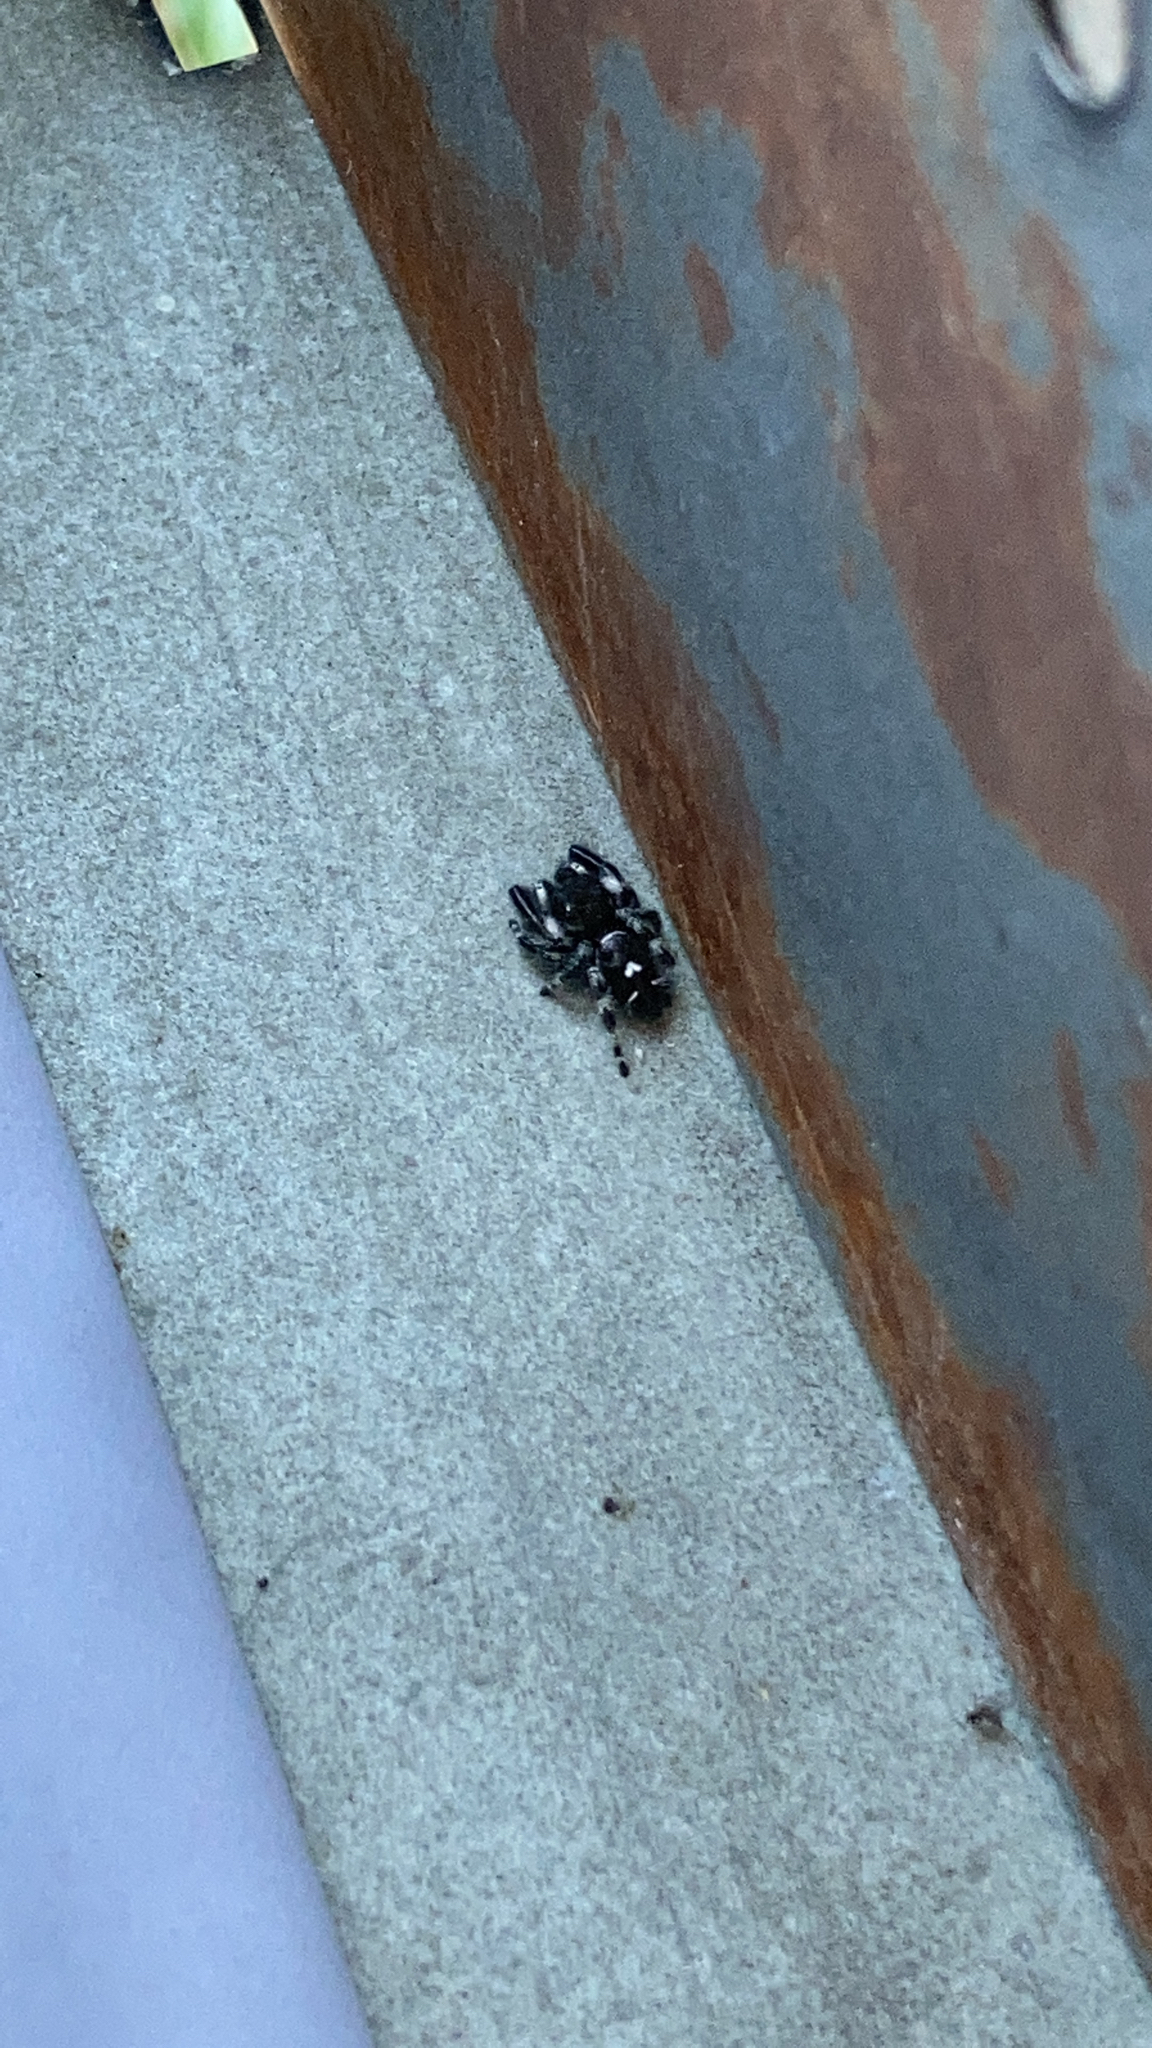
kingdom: Animalia
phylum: Arthropoda
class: Arachnida
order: Araneae
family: Salticidae
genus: Phidippus
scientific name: Phidippus audax
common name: Bold jumper
